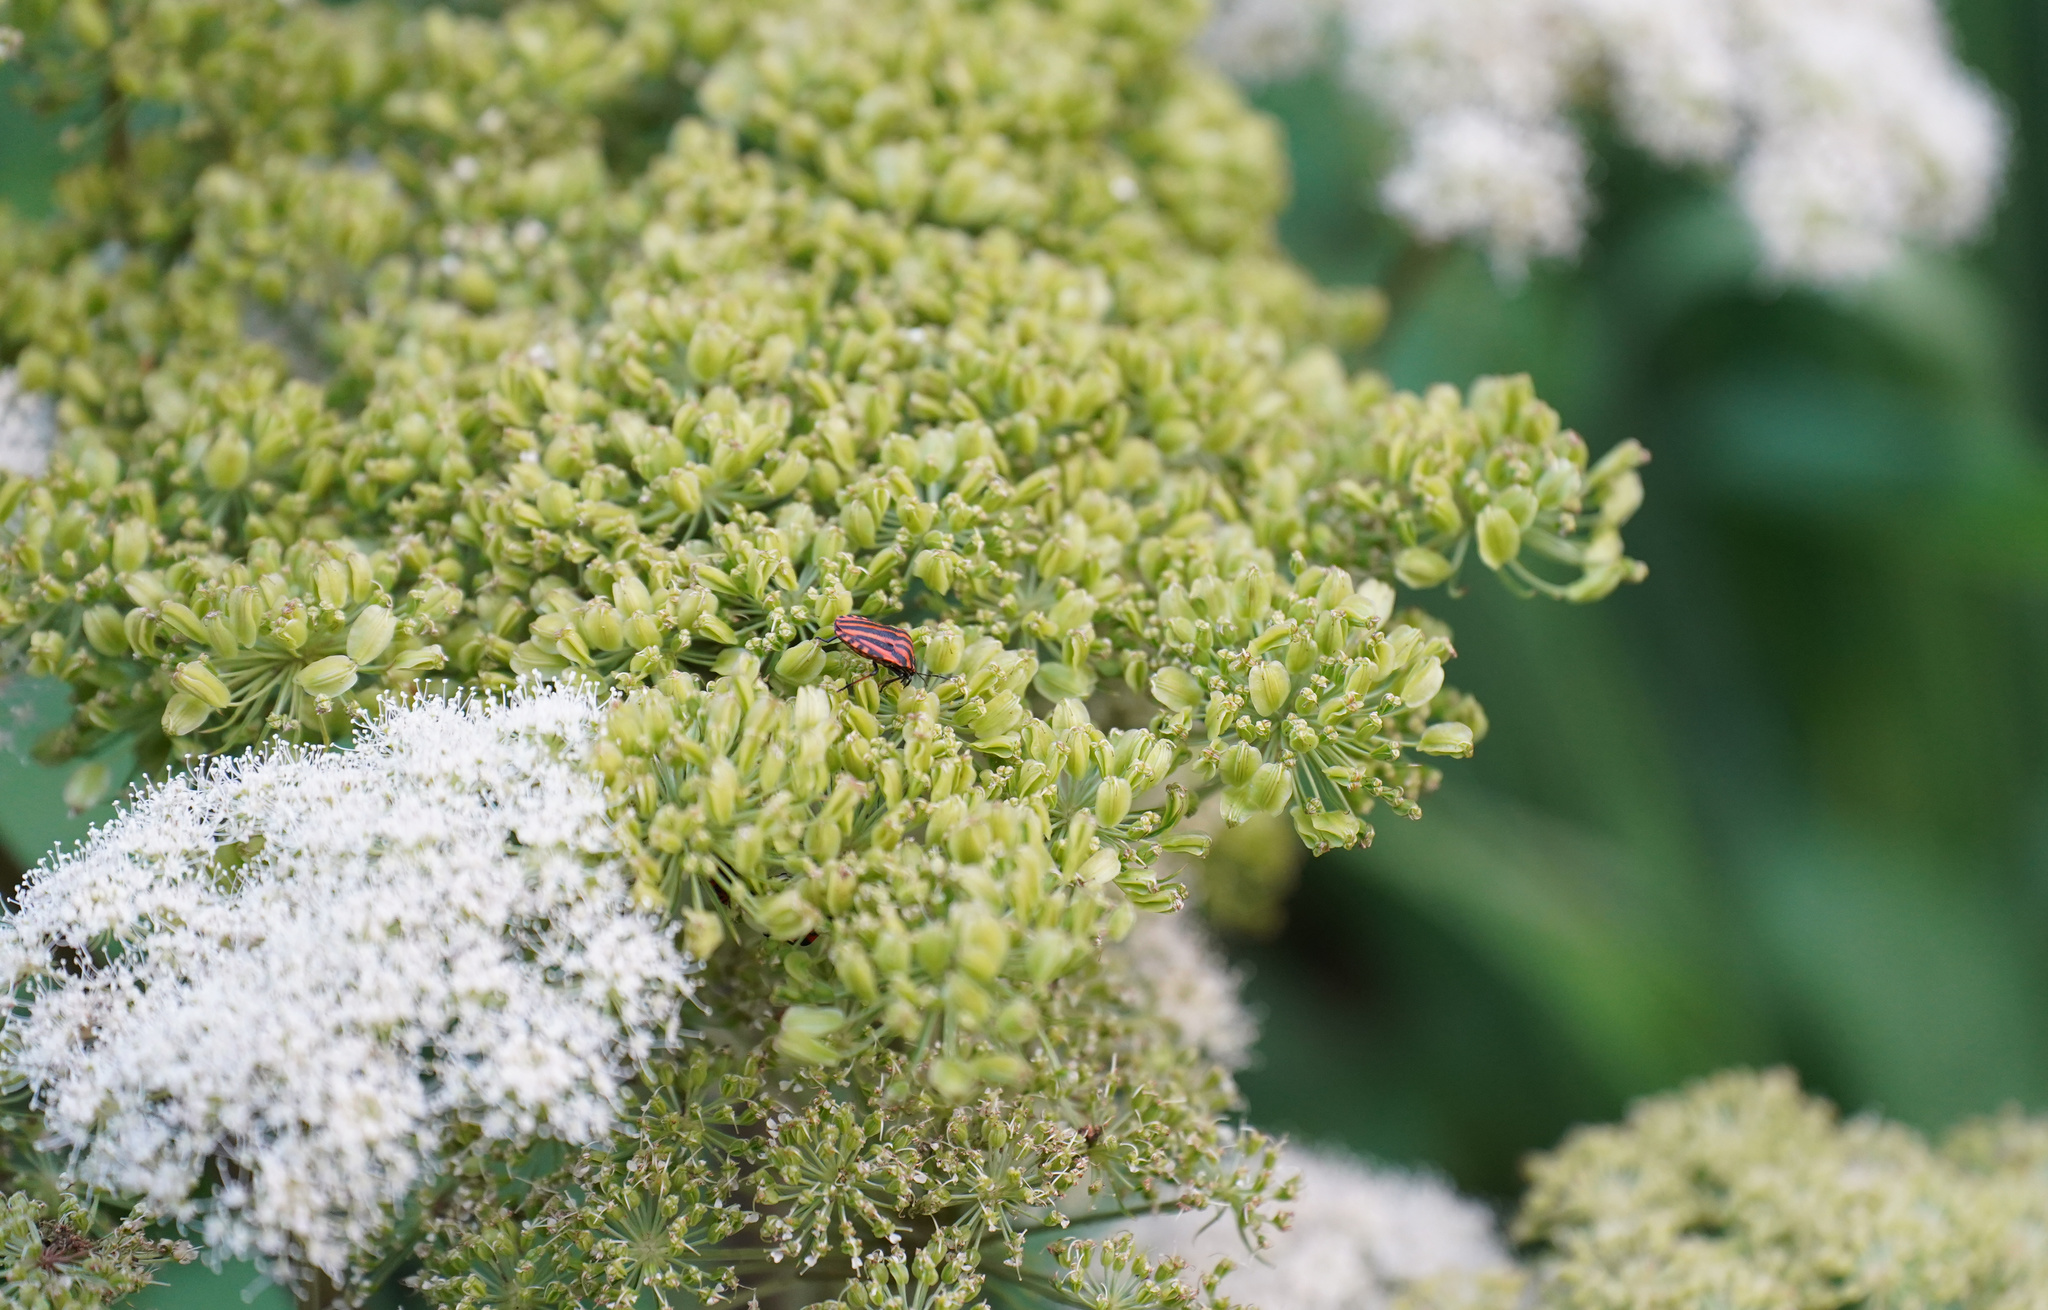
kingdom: Animalia
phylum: Arthropoda
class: Insecta
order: Hemiptera
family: Pentatomidae
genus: Graphosoma
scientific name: Graphosoma italicum
